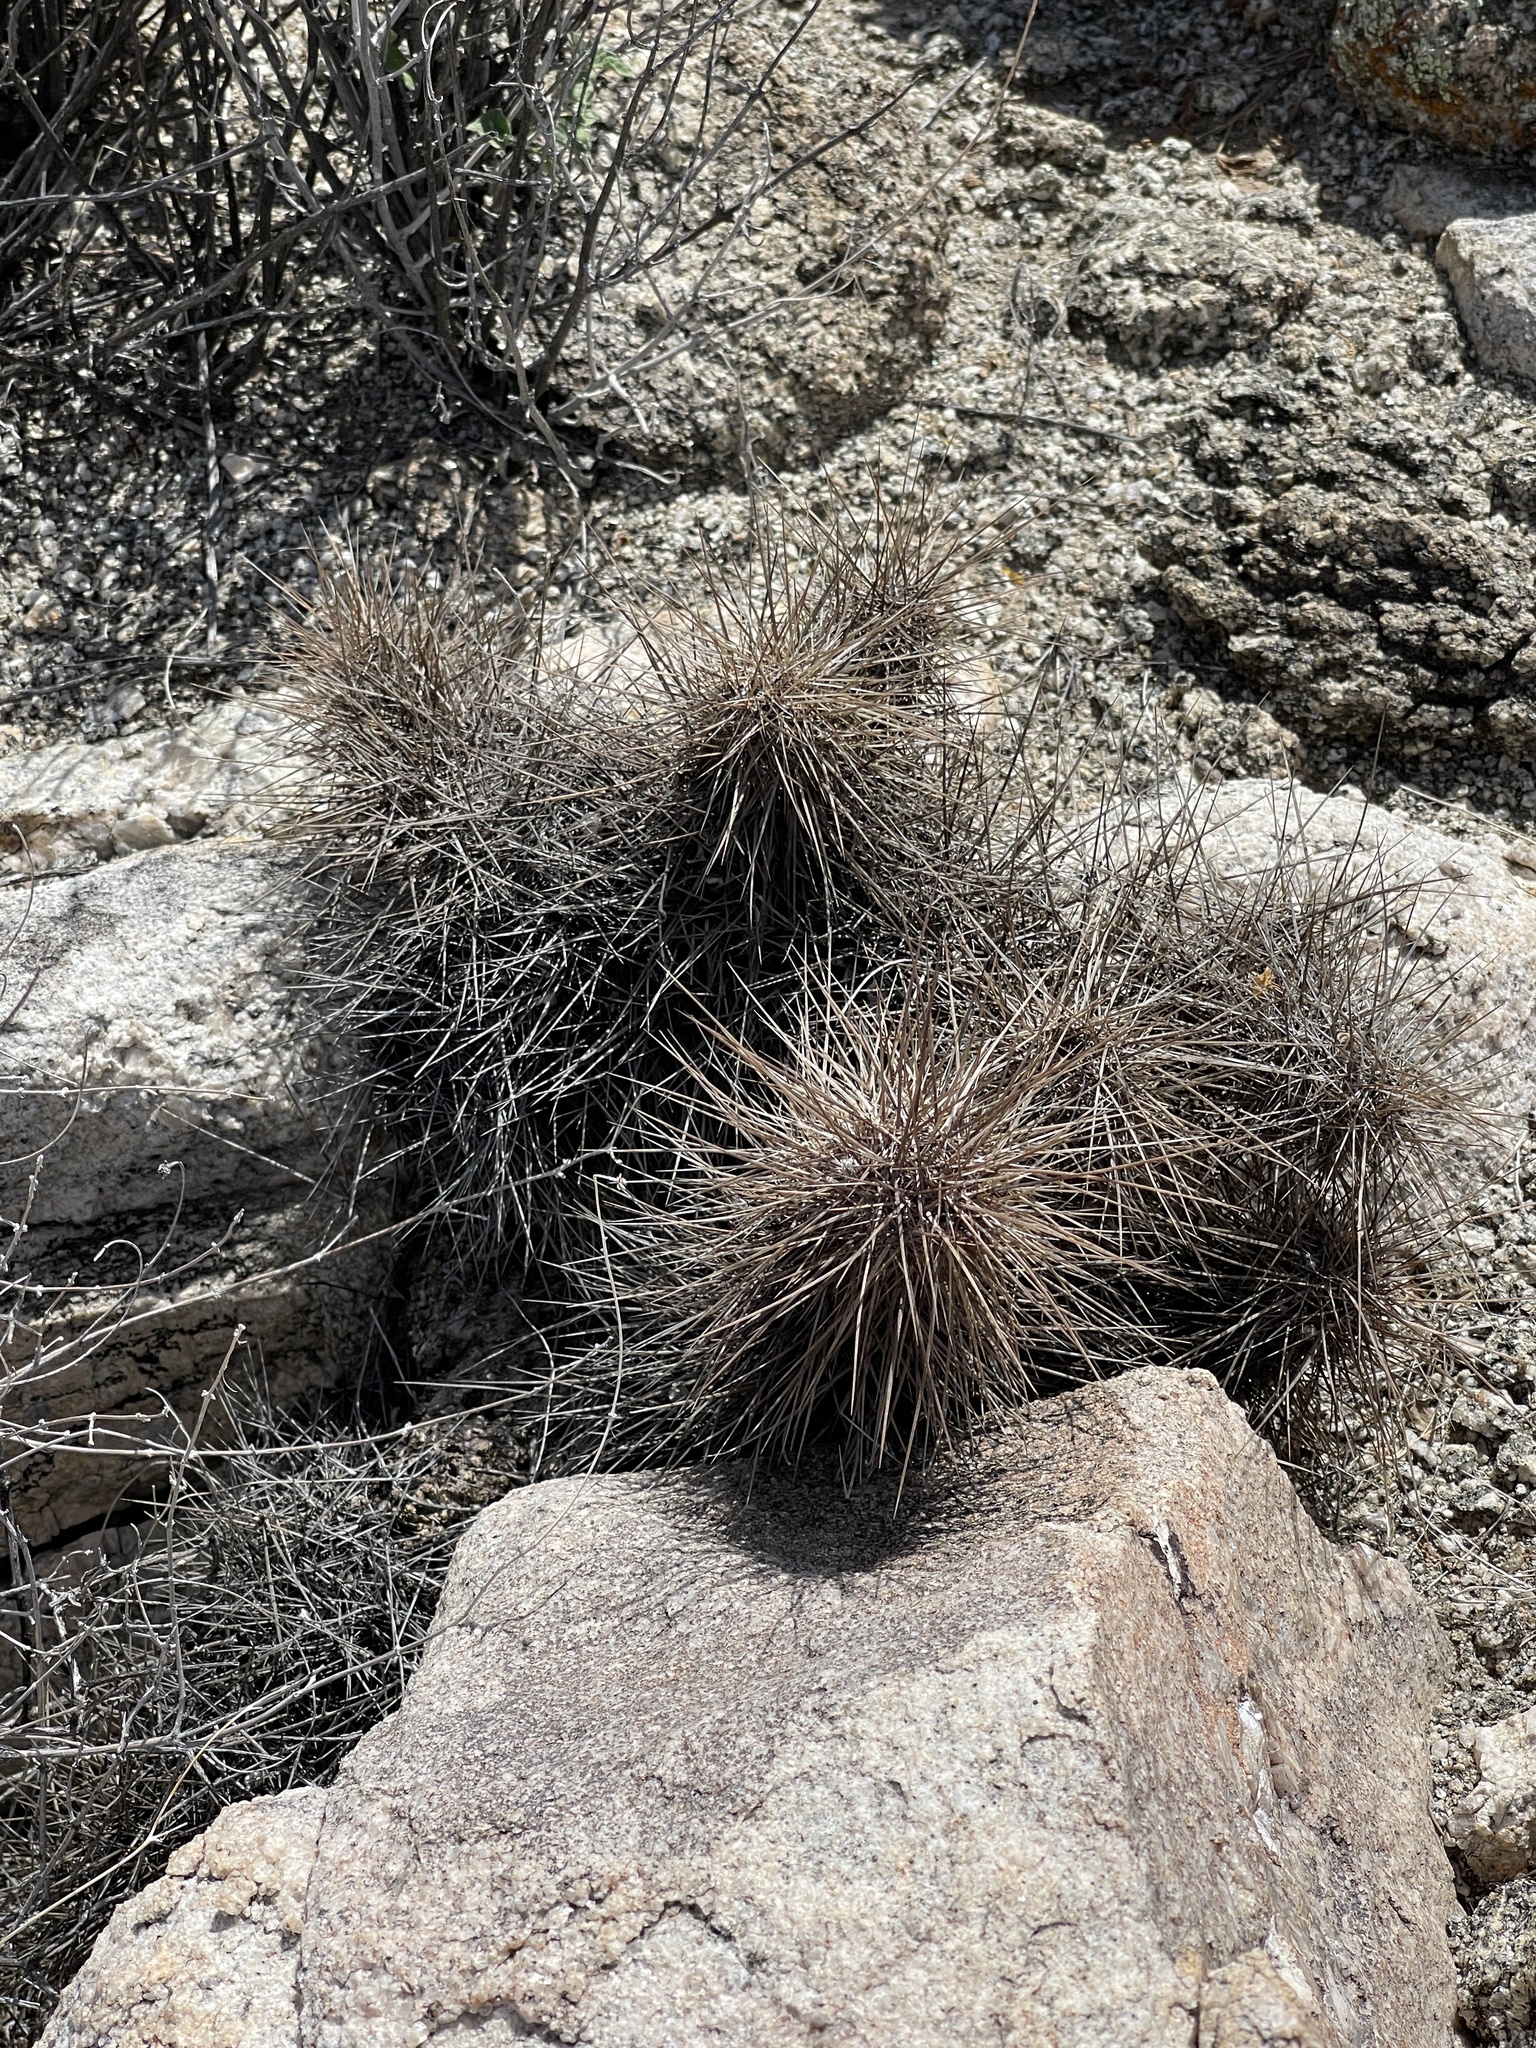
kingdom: Plantae
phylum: Tracheophyta
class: Magnoliopsida
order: Caryophyllales
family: Cactaceae
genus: Echinocereus
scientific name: Echinocereus engelmannii
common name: Engelmann's hedgehog cactus
